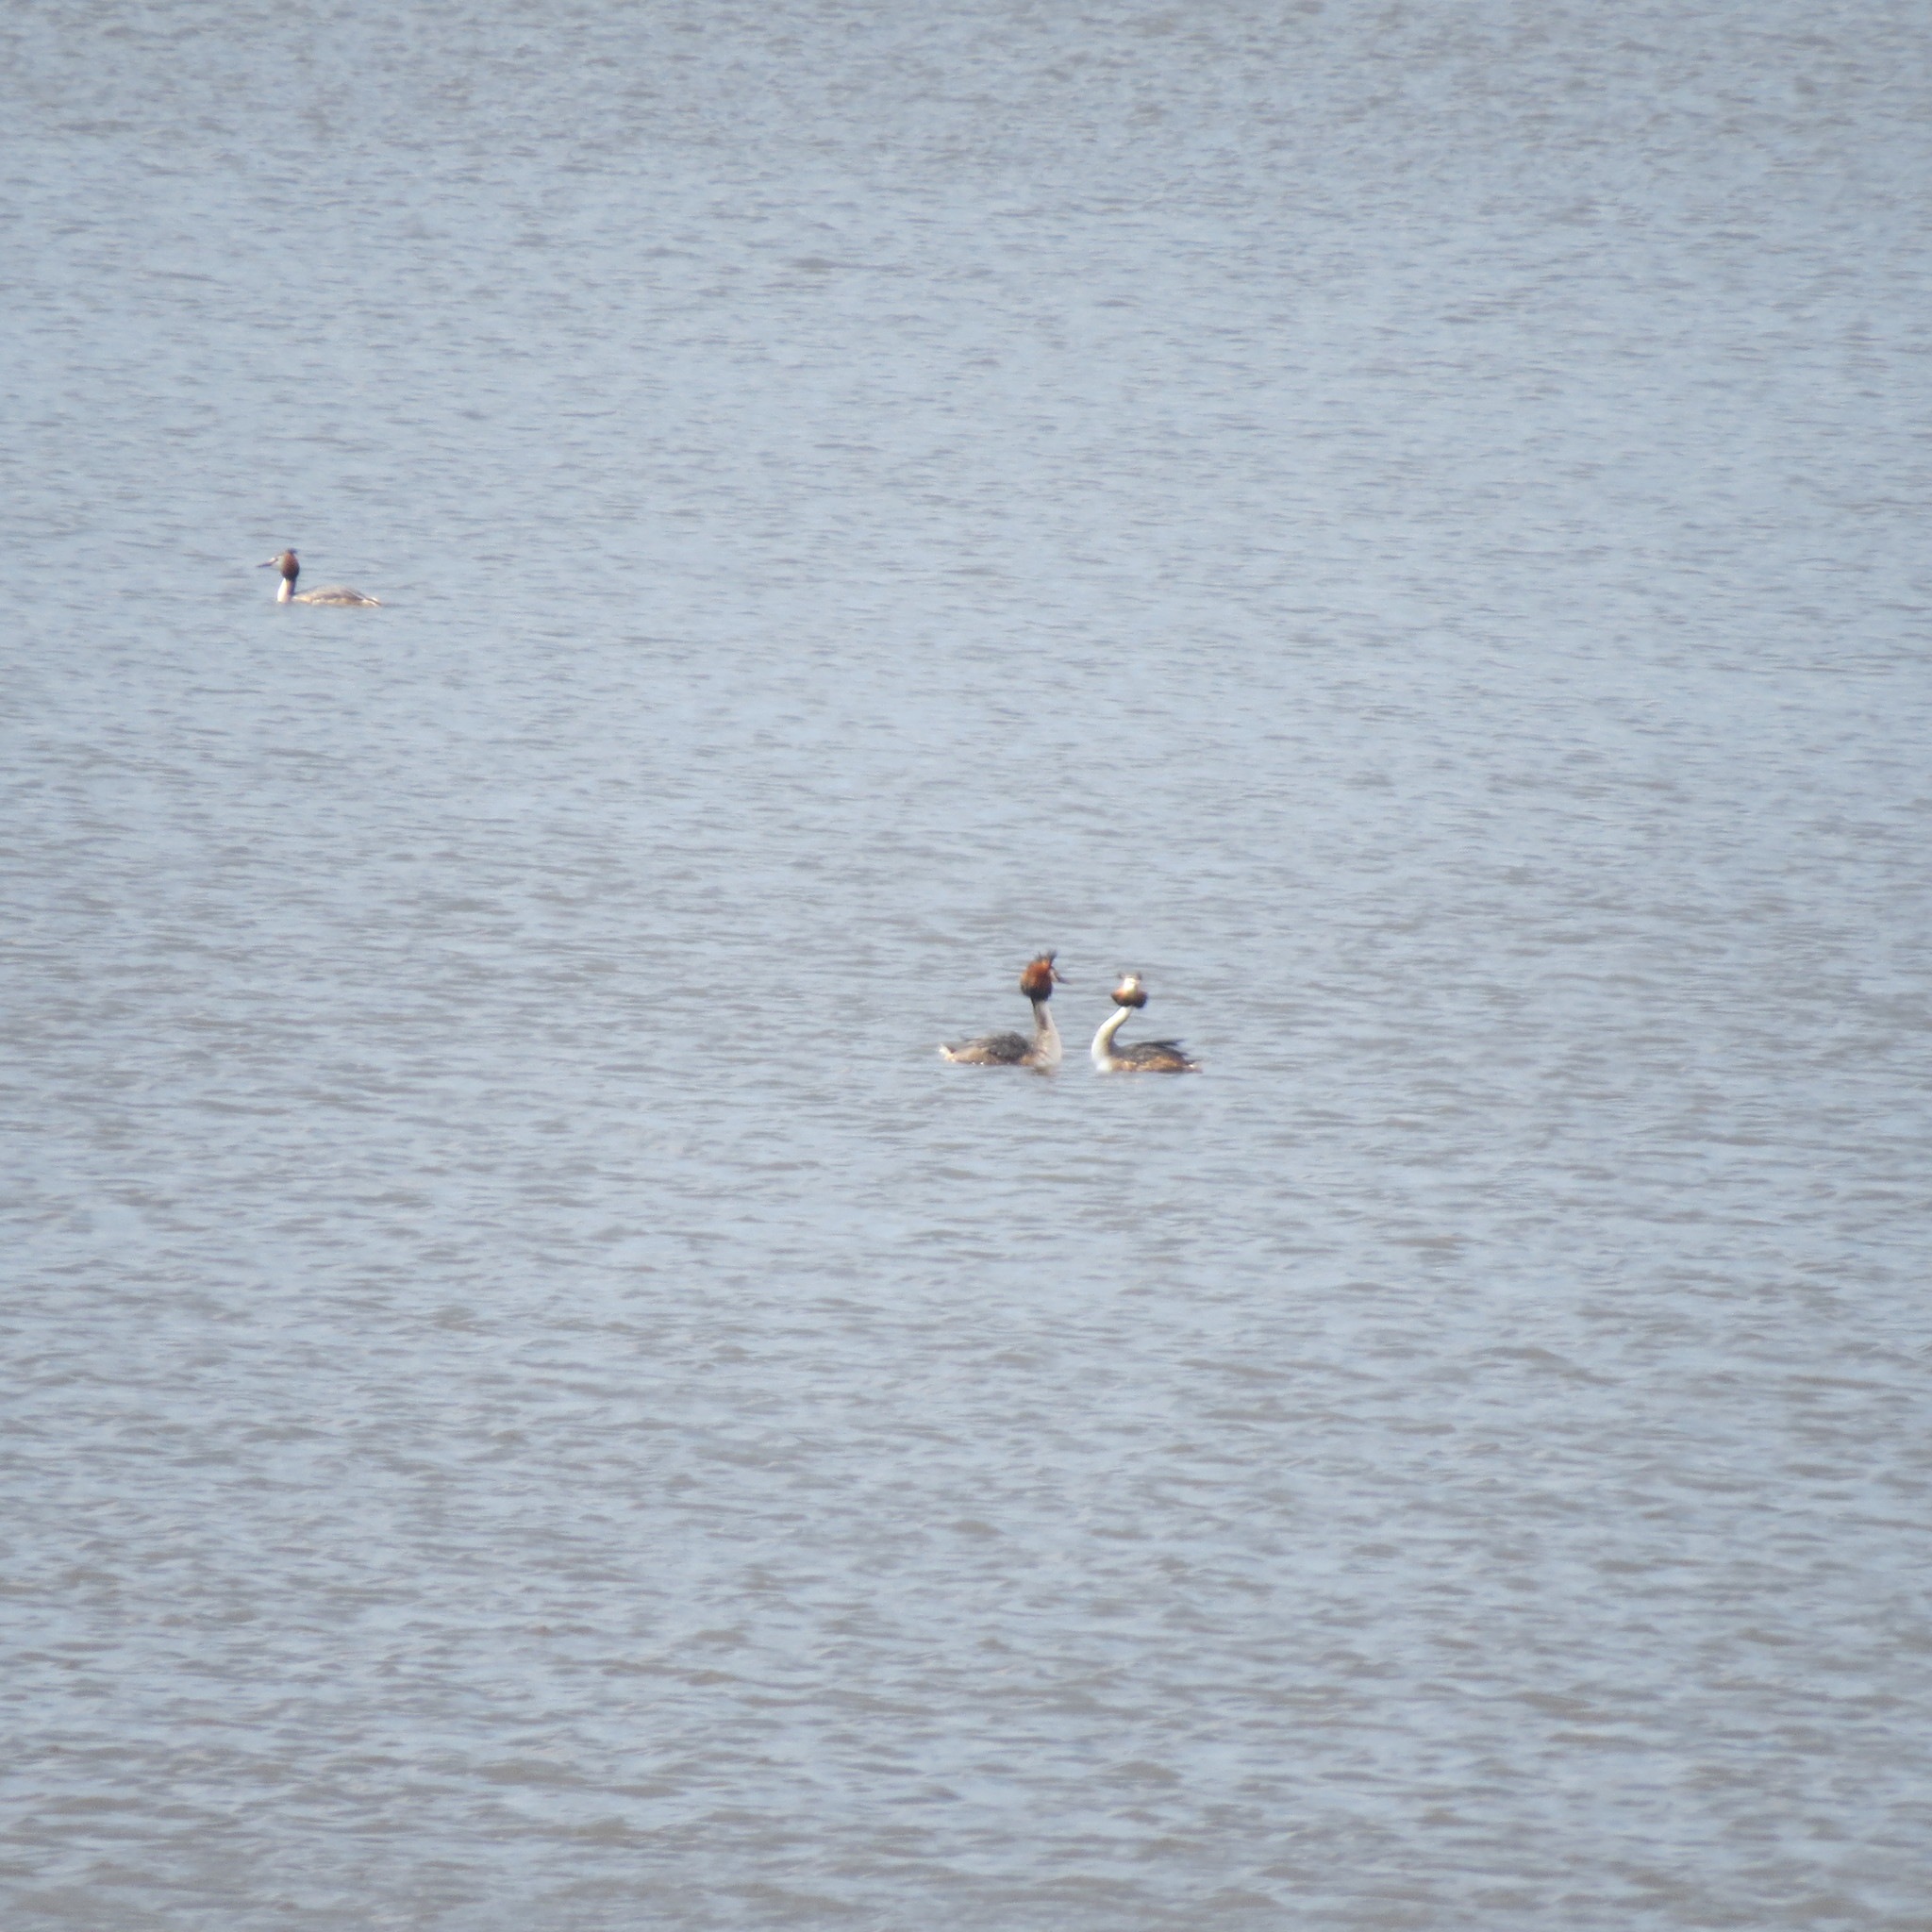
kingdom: Animalia
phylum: Chordata
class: Aves
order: Podicipediformes
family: Podicipedidae
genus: Podiceps
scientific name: Podiceps cristatus
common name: Great crested grebe
